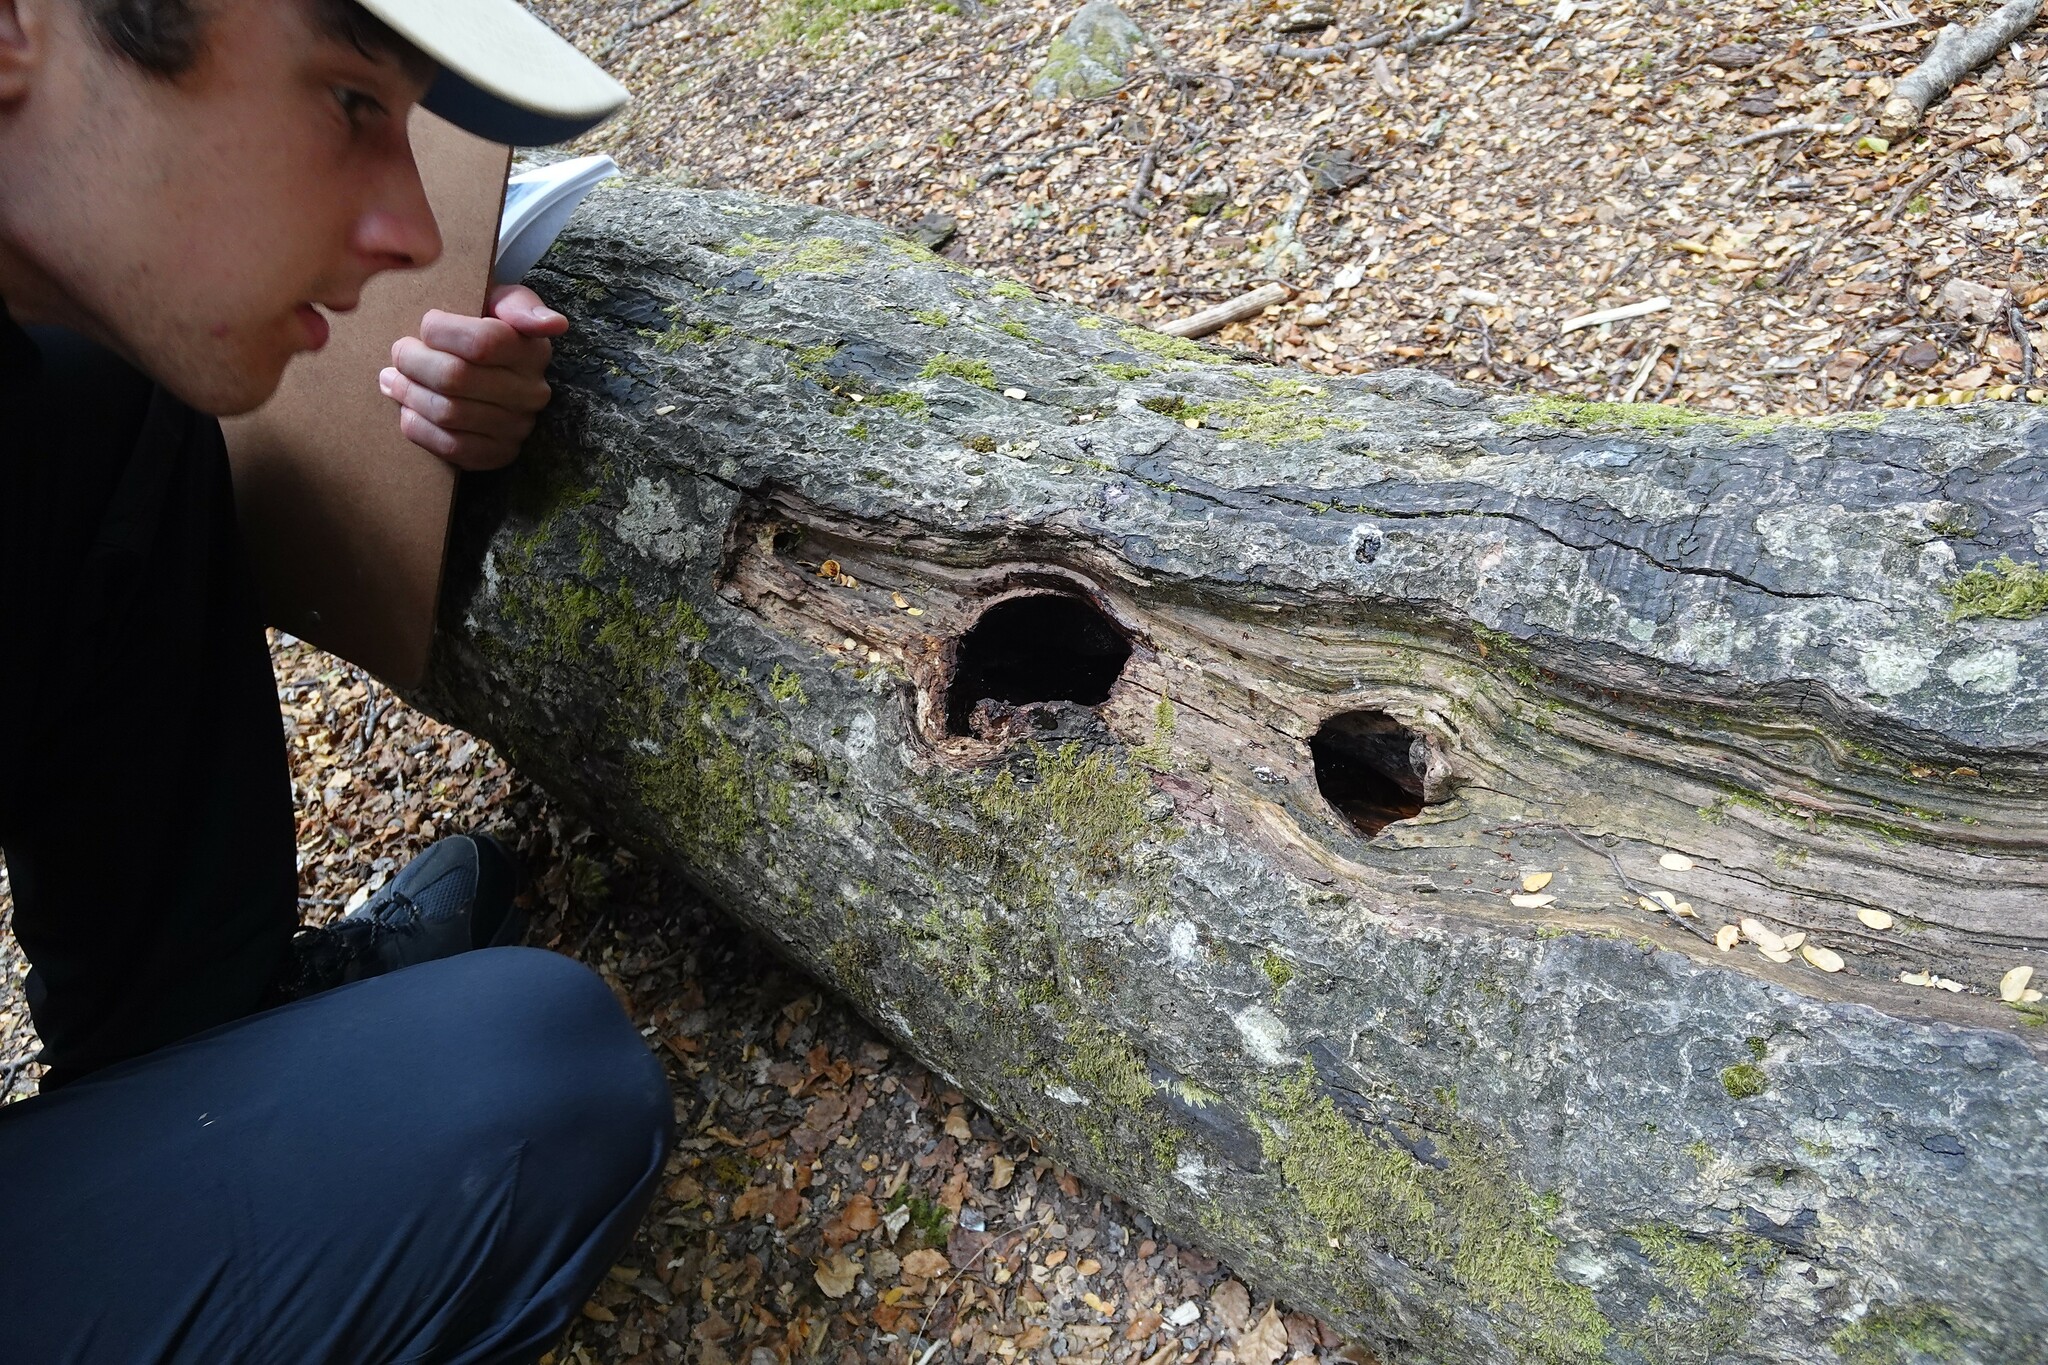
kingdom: Animalia
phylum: Chordata
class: Aves
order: Passeriformes
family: Acanthisittidae
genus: Acanthisitta
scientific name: Acanthisitta chloris
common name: Rifleman
